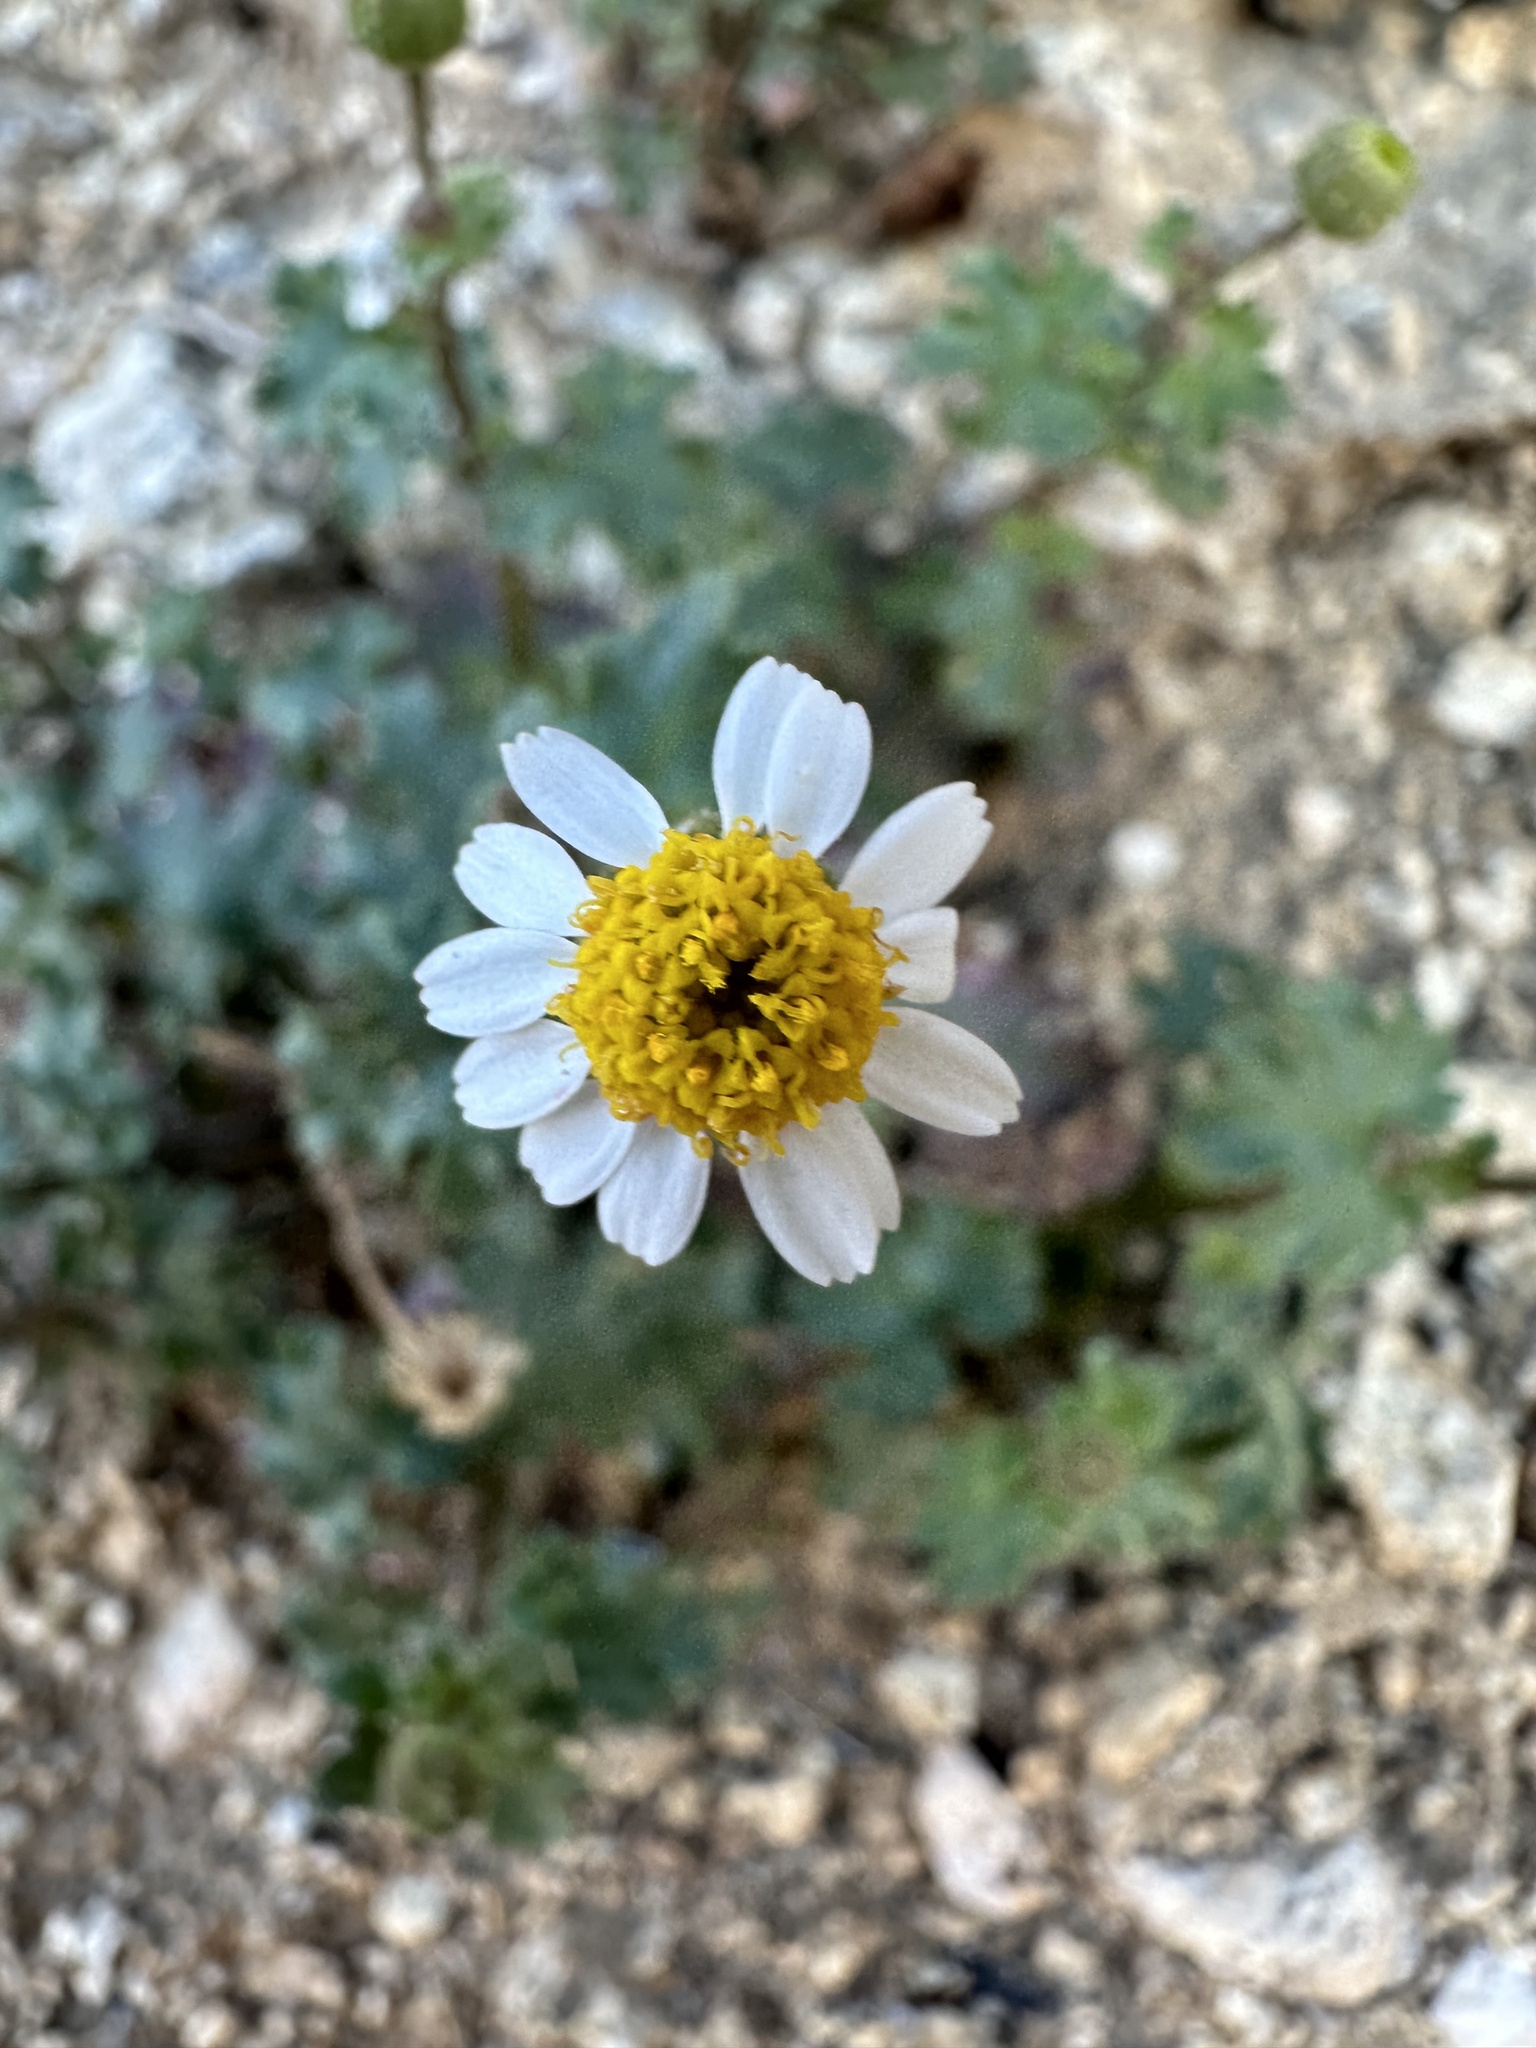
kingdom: Plantae
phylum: Tracheophyta
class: Magnoliopsida
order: Asterales
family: Asteraceae
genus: Laphamia
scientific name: Laphamia emoryi
